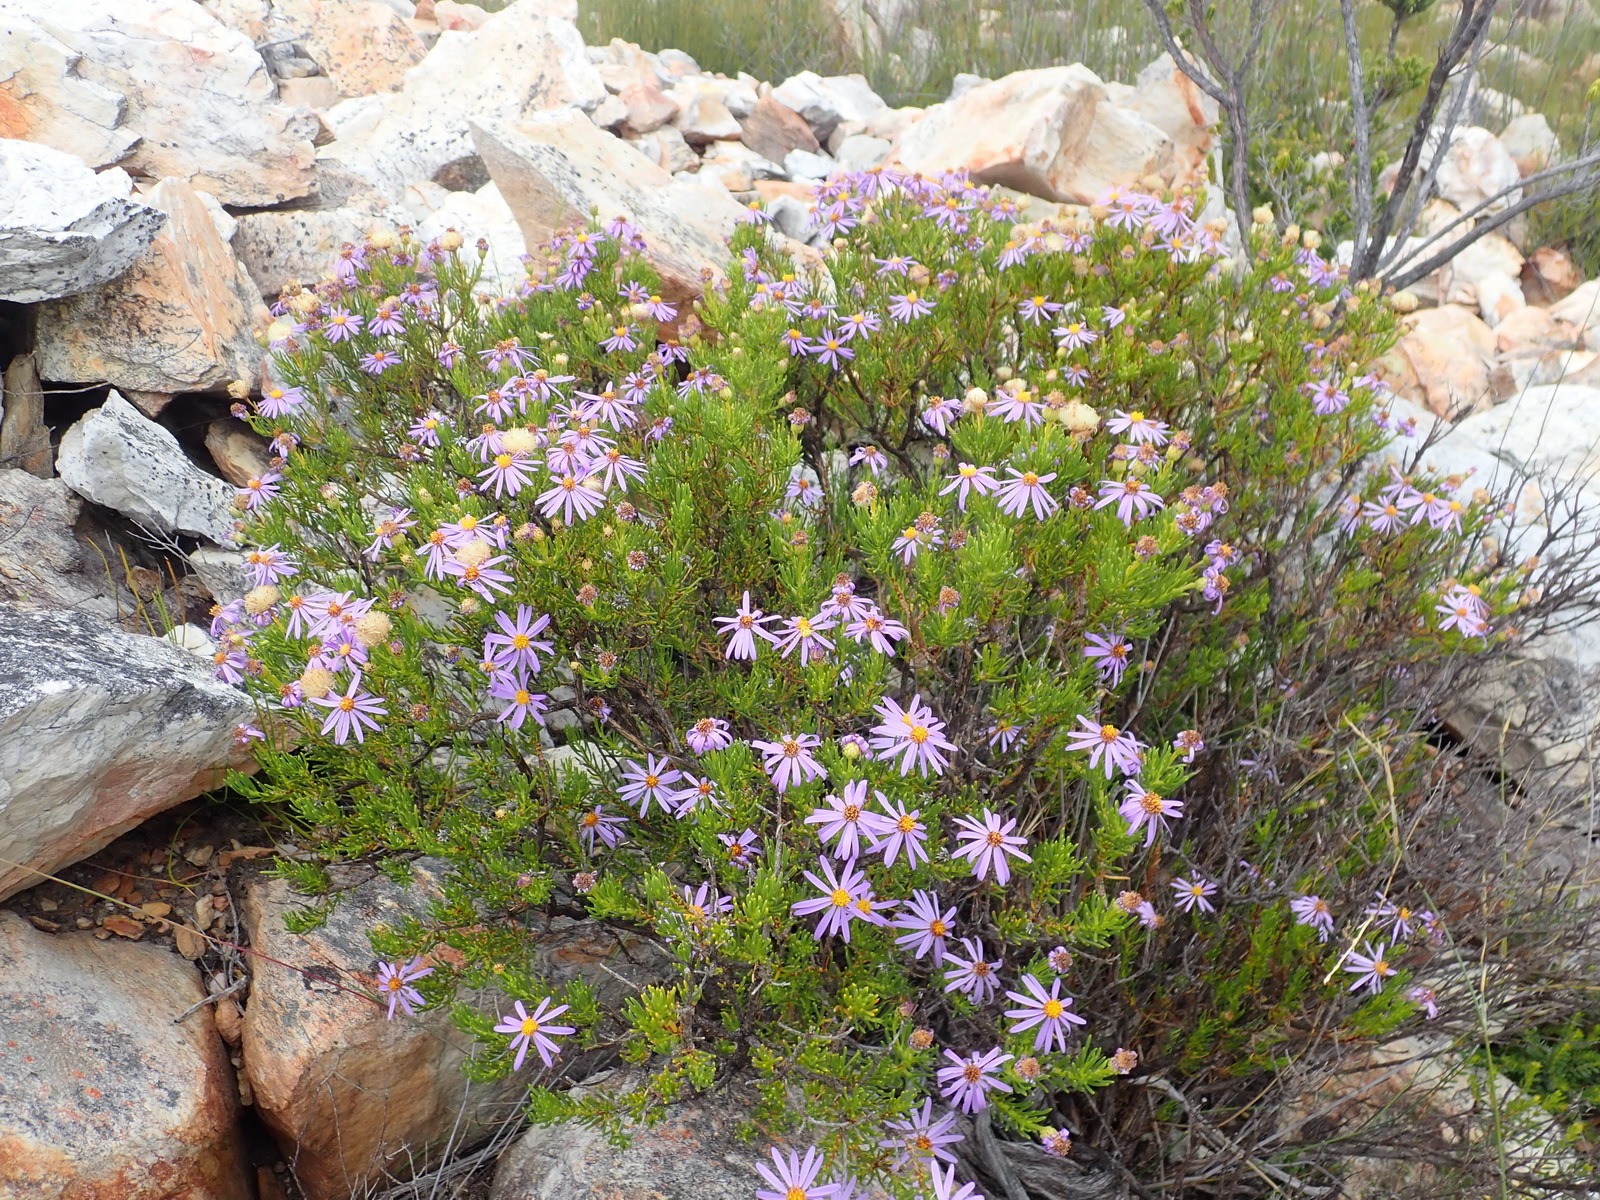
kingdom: Plantae
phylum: Tracheophyta
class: Magnoliopsida
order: Asterales
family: Asteraceae
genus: Felicia
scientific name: Felicia filifolia
